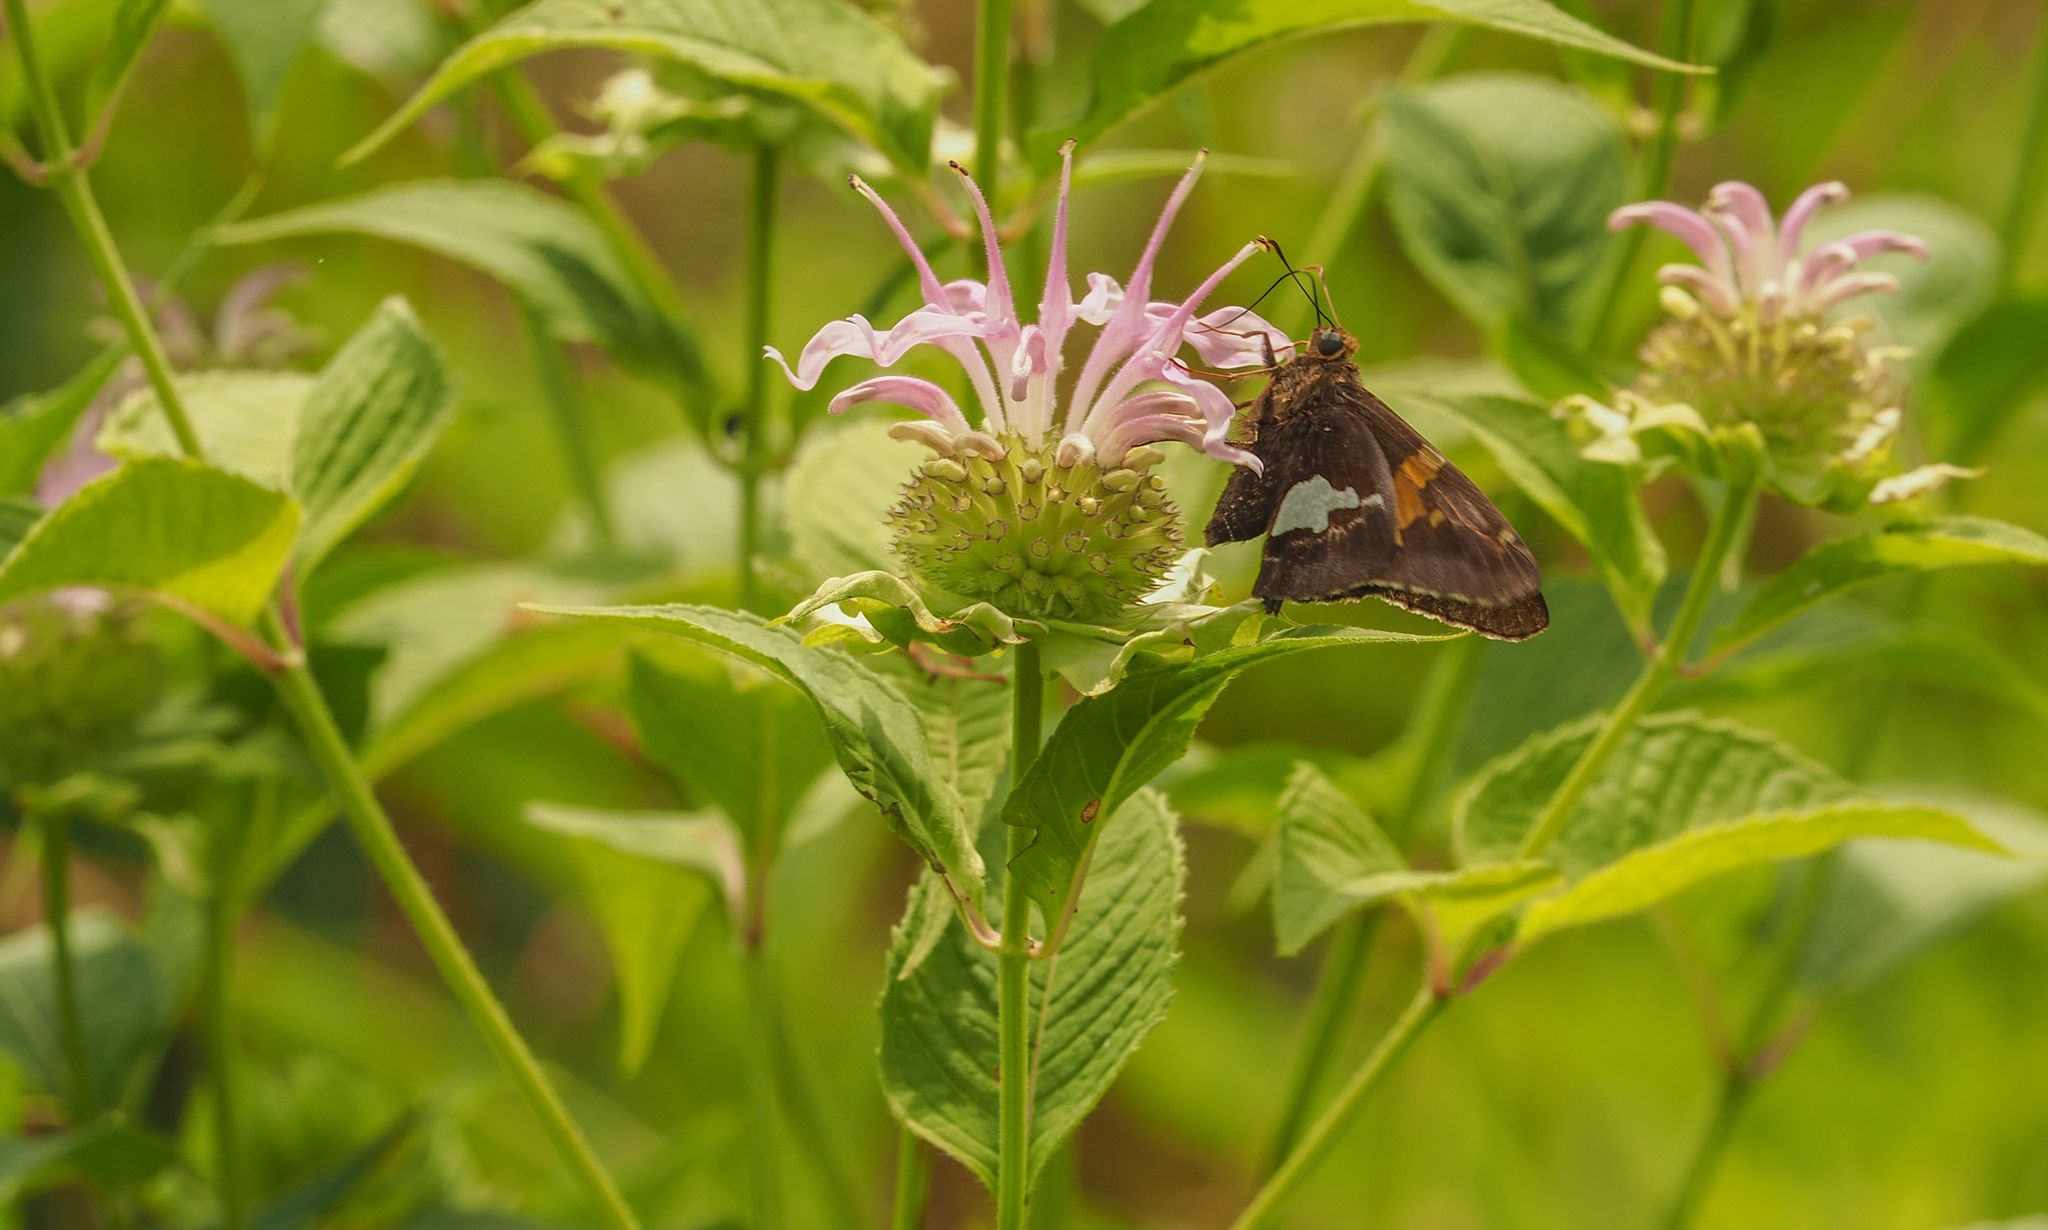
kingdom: Animalia
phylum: Arthropoda
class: Insecta
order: Lepidoptera
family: Hesperiidae
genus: Epargyreus
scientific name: Epargyreus clarus
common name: Silver-spotted skipper
